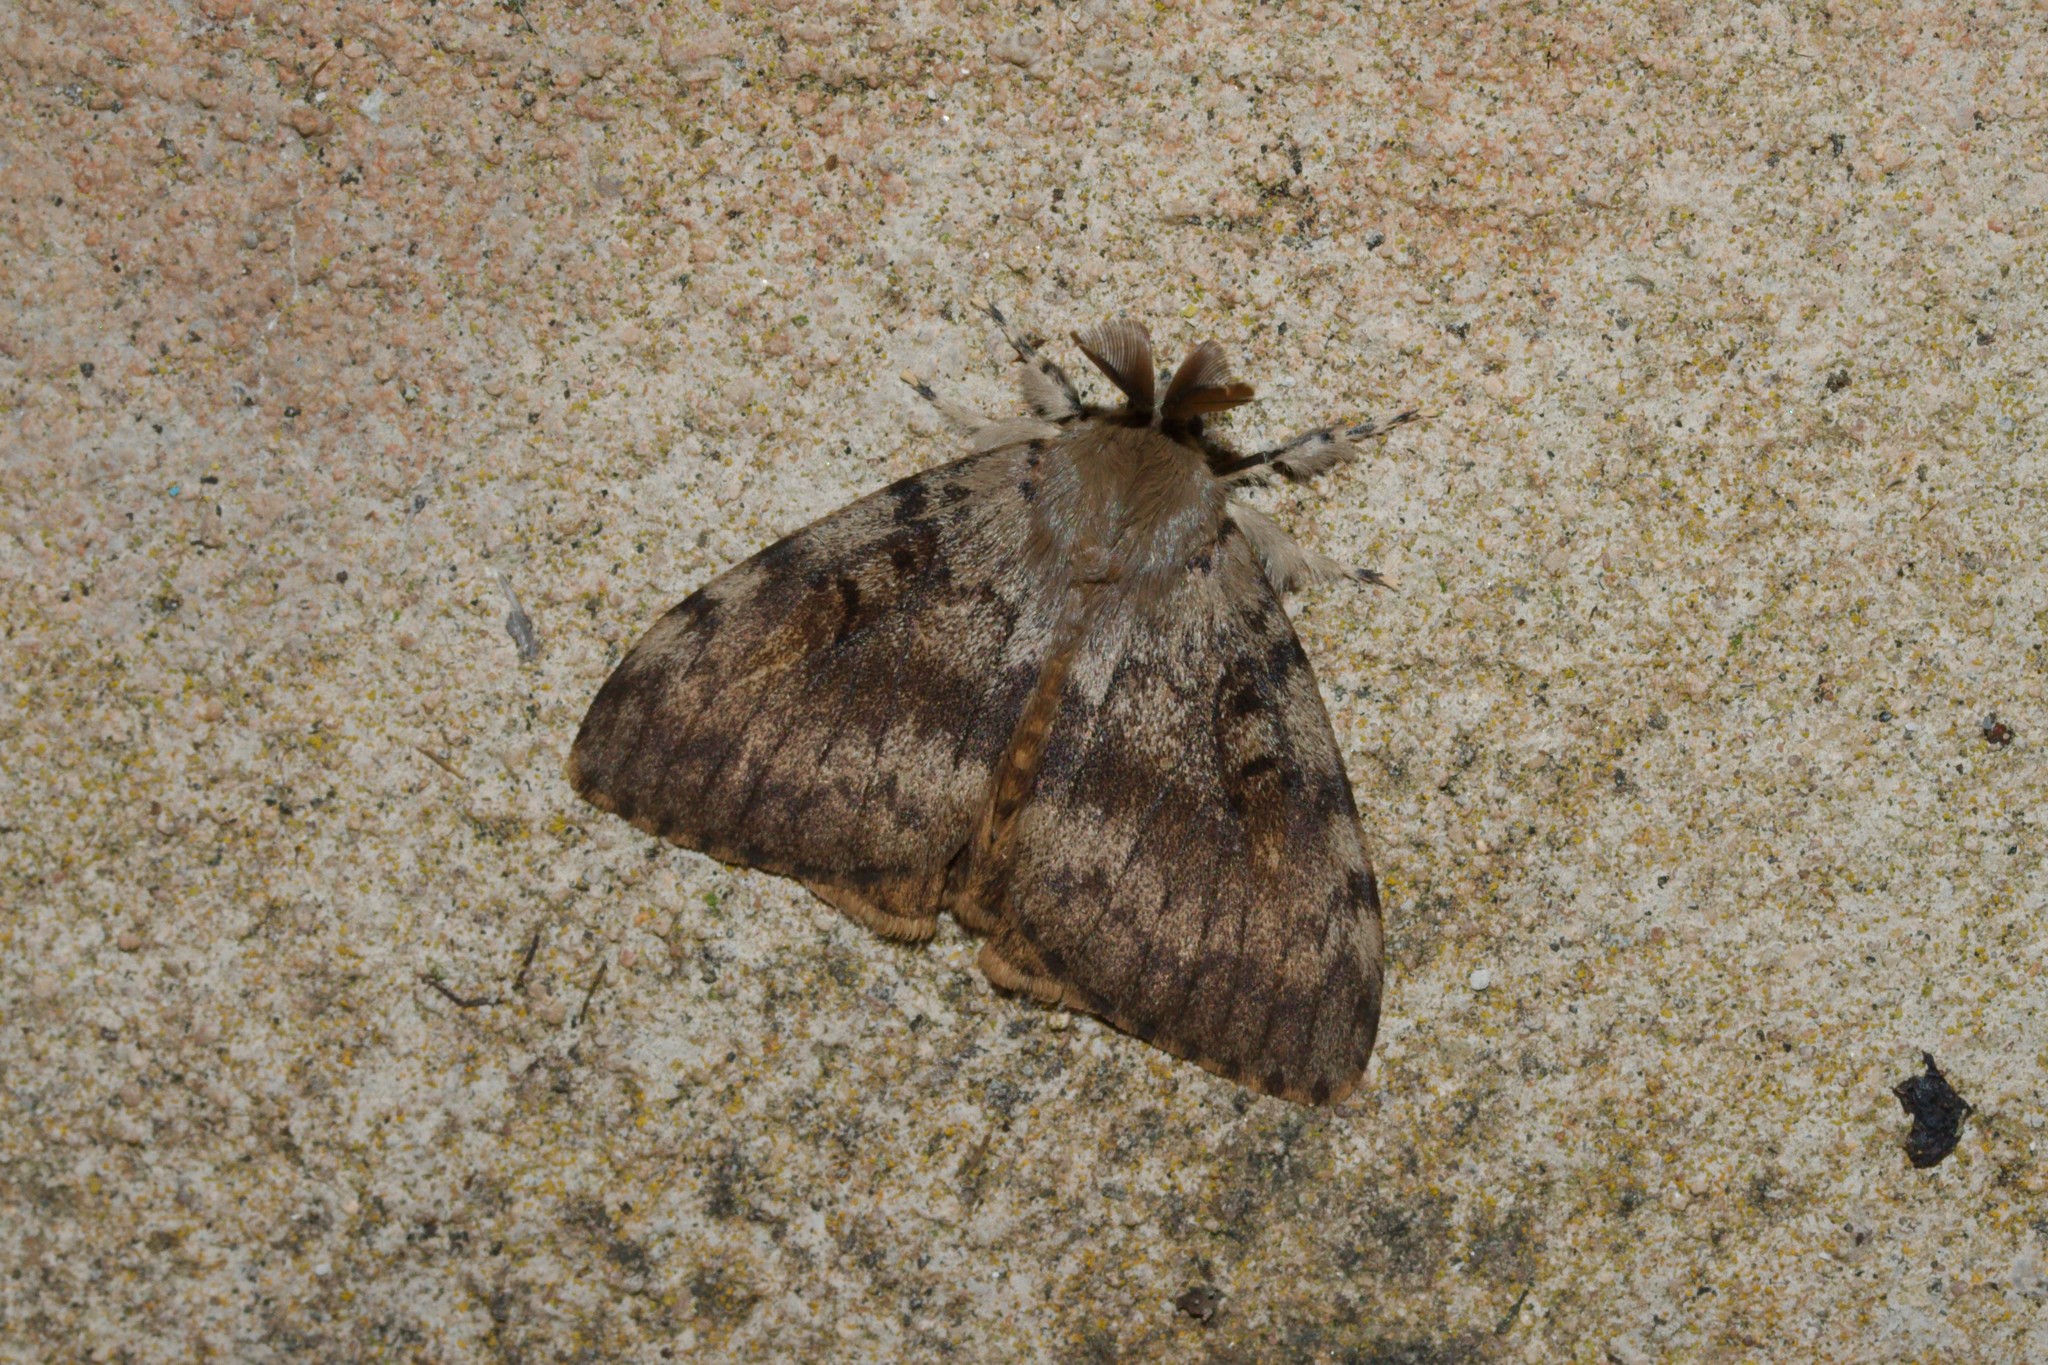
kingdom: Animalia
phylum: Arthropoda
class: Insecta
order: Lepidoptera
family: Erebidae
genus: Lymantria
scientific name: Lymantria dispar
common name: Gypsy moth
